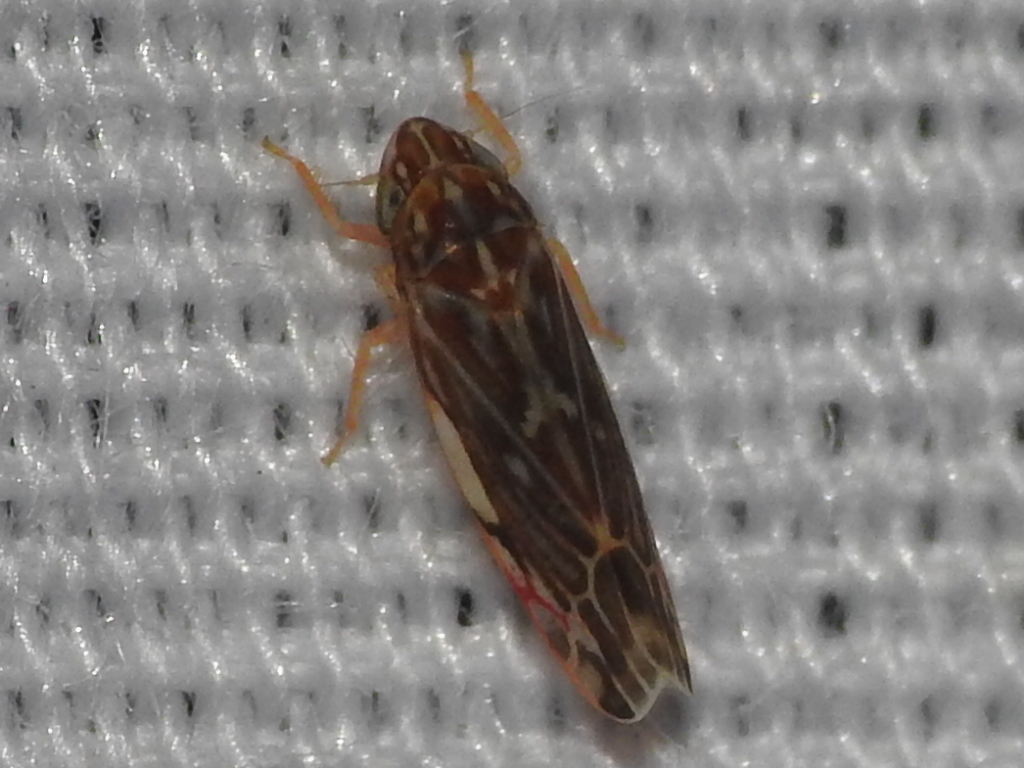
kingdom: Animalia
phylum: Arthropoda
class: Insecta
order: Hemiptera
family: Cicadellidae
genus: Erasmoneura
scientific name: Erasmoneura vulnerata
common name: The wounded leafhopper
